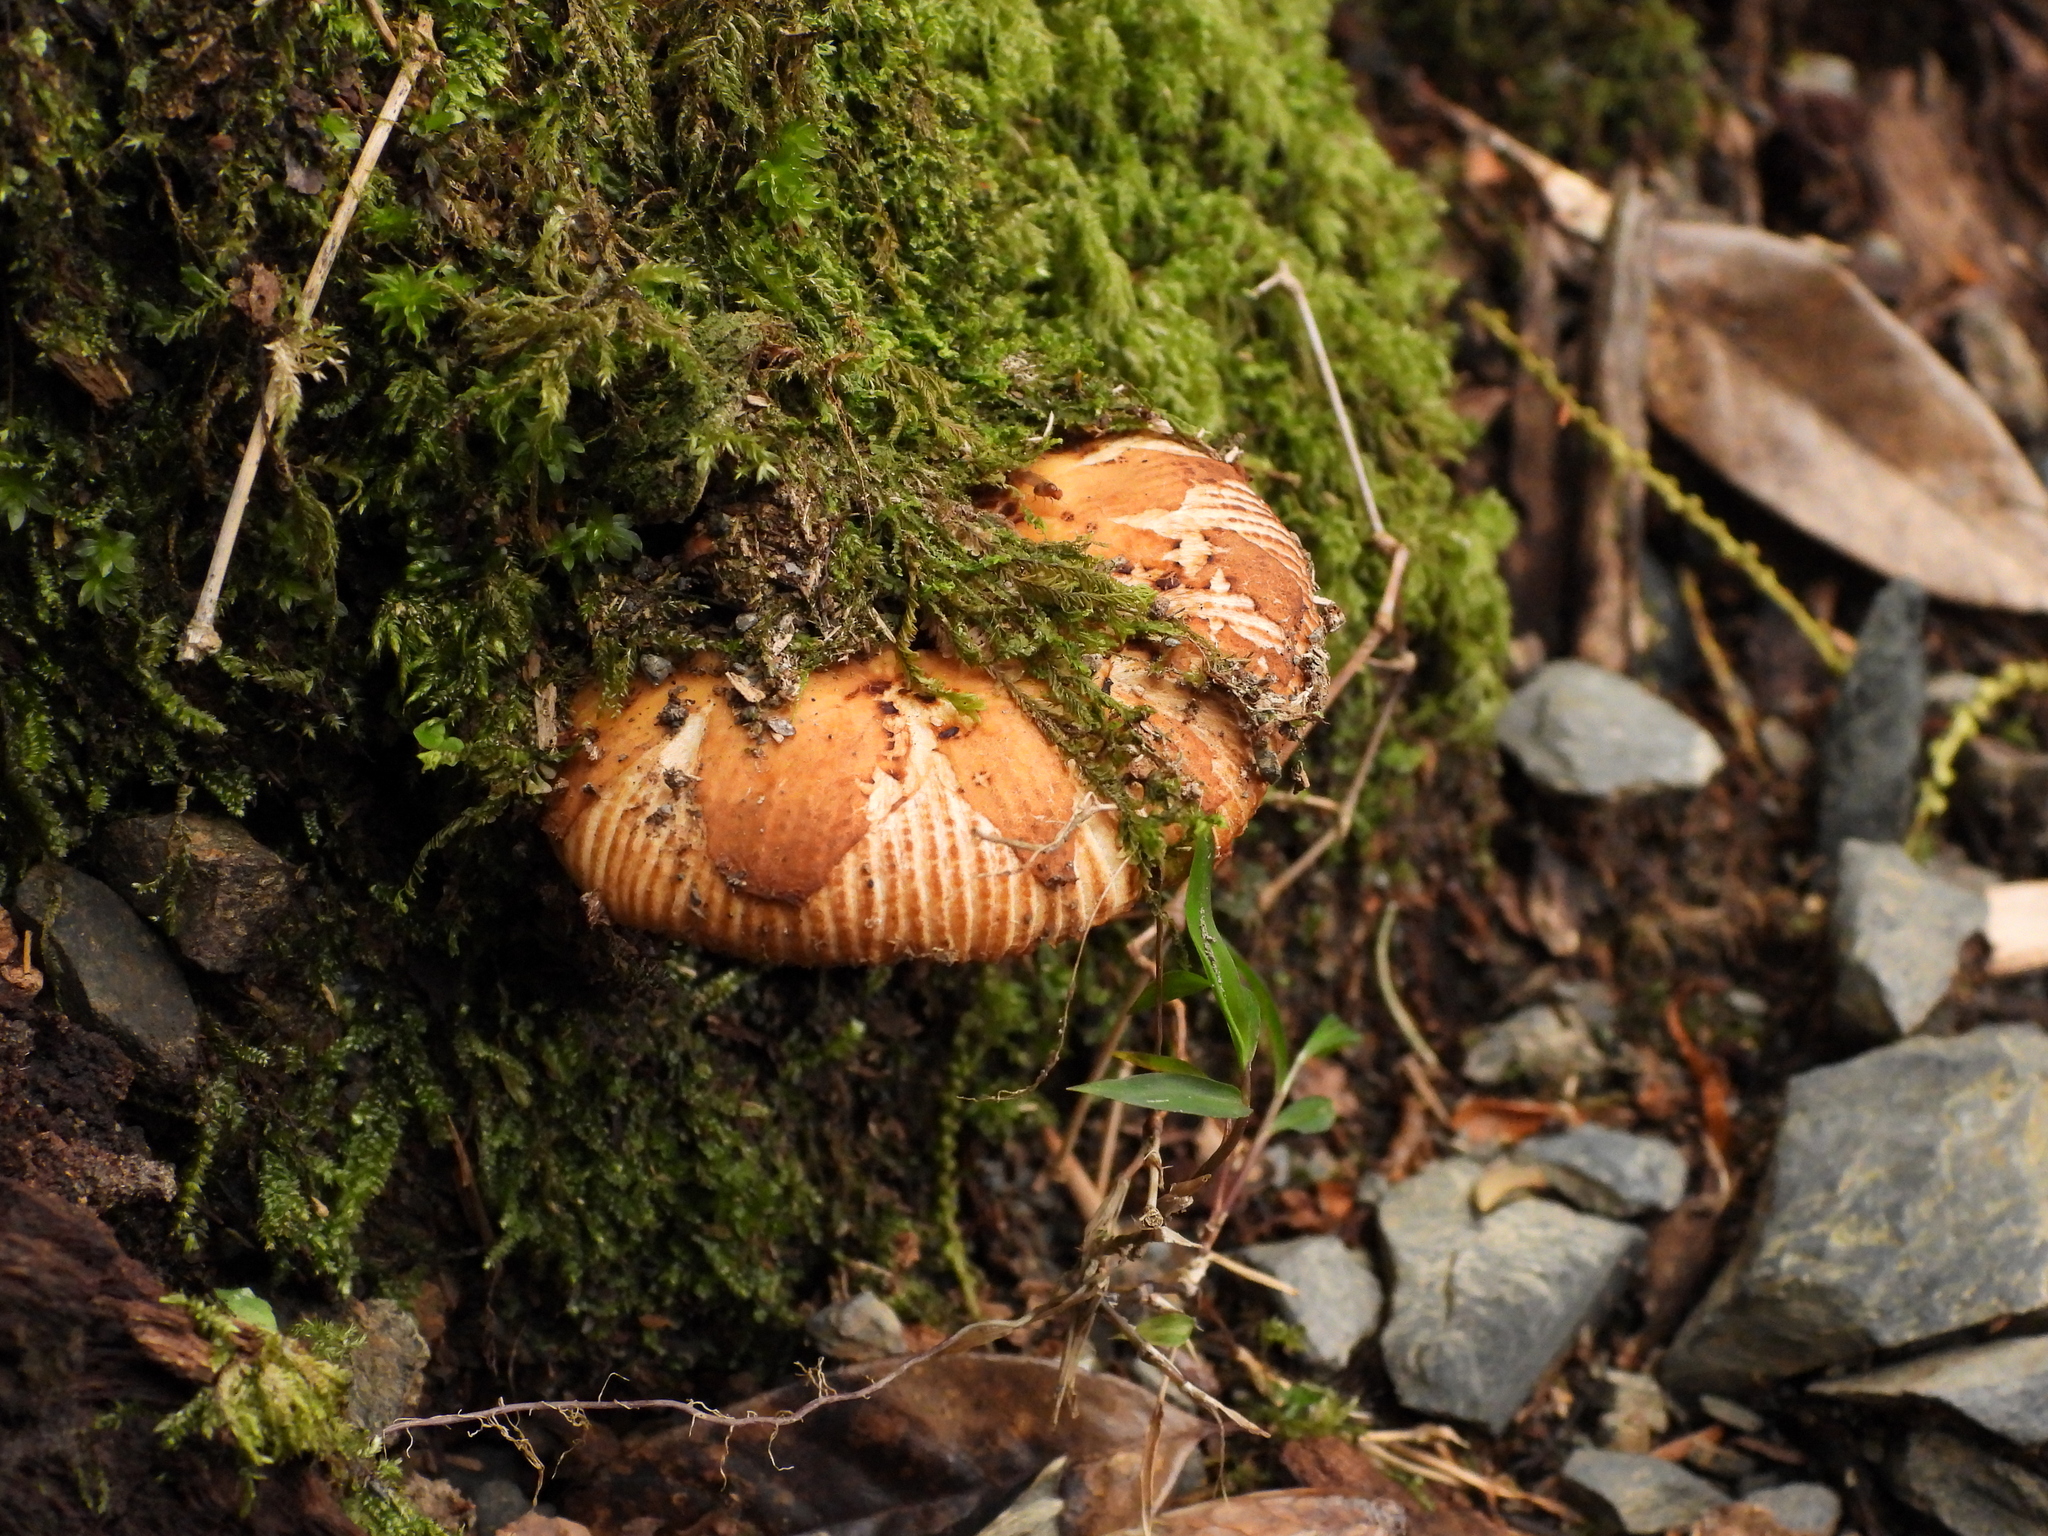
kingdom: Fungi
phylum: Basidiomycota
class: Agaricomycetes
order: Russulales
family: Russulaceae
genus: Russula
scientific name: Russula senecis
